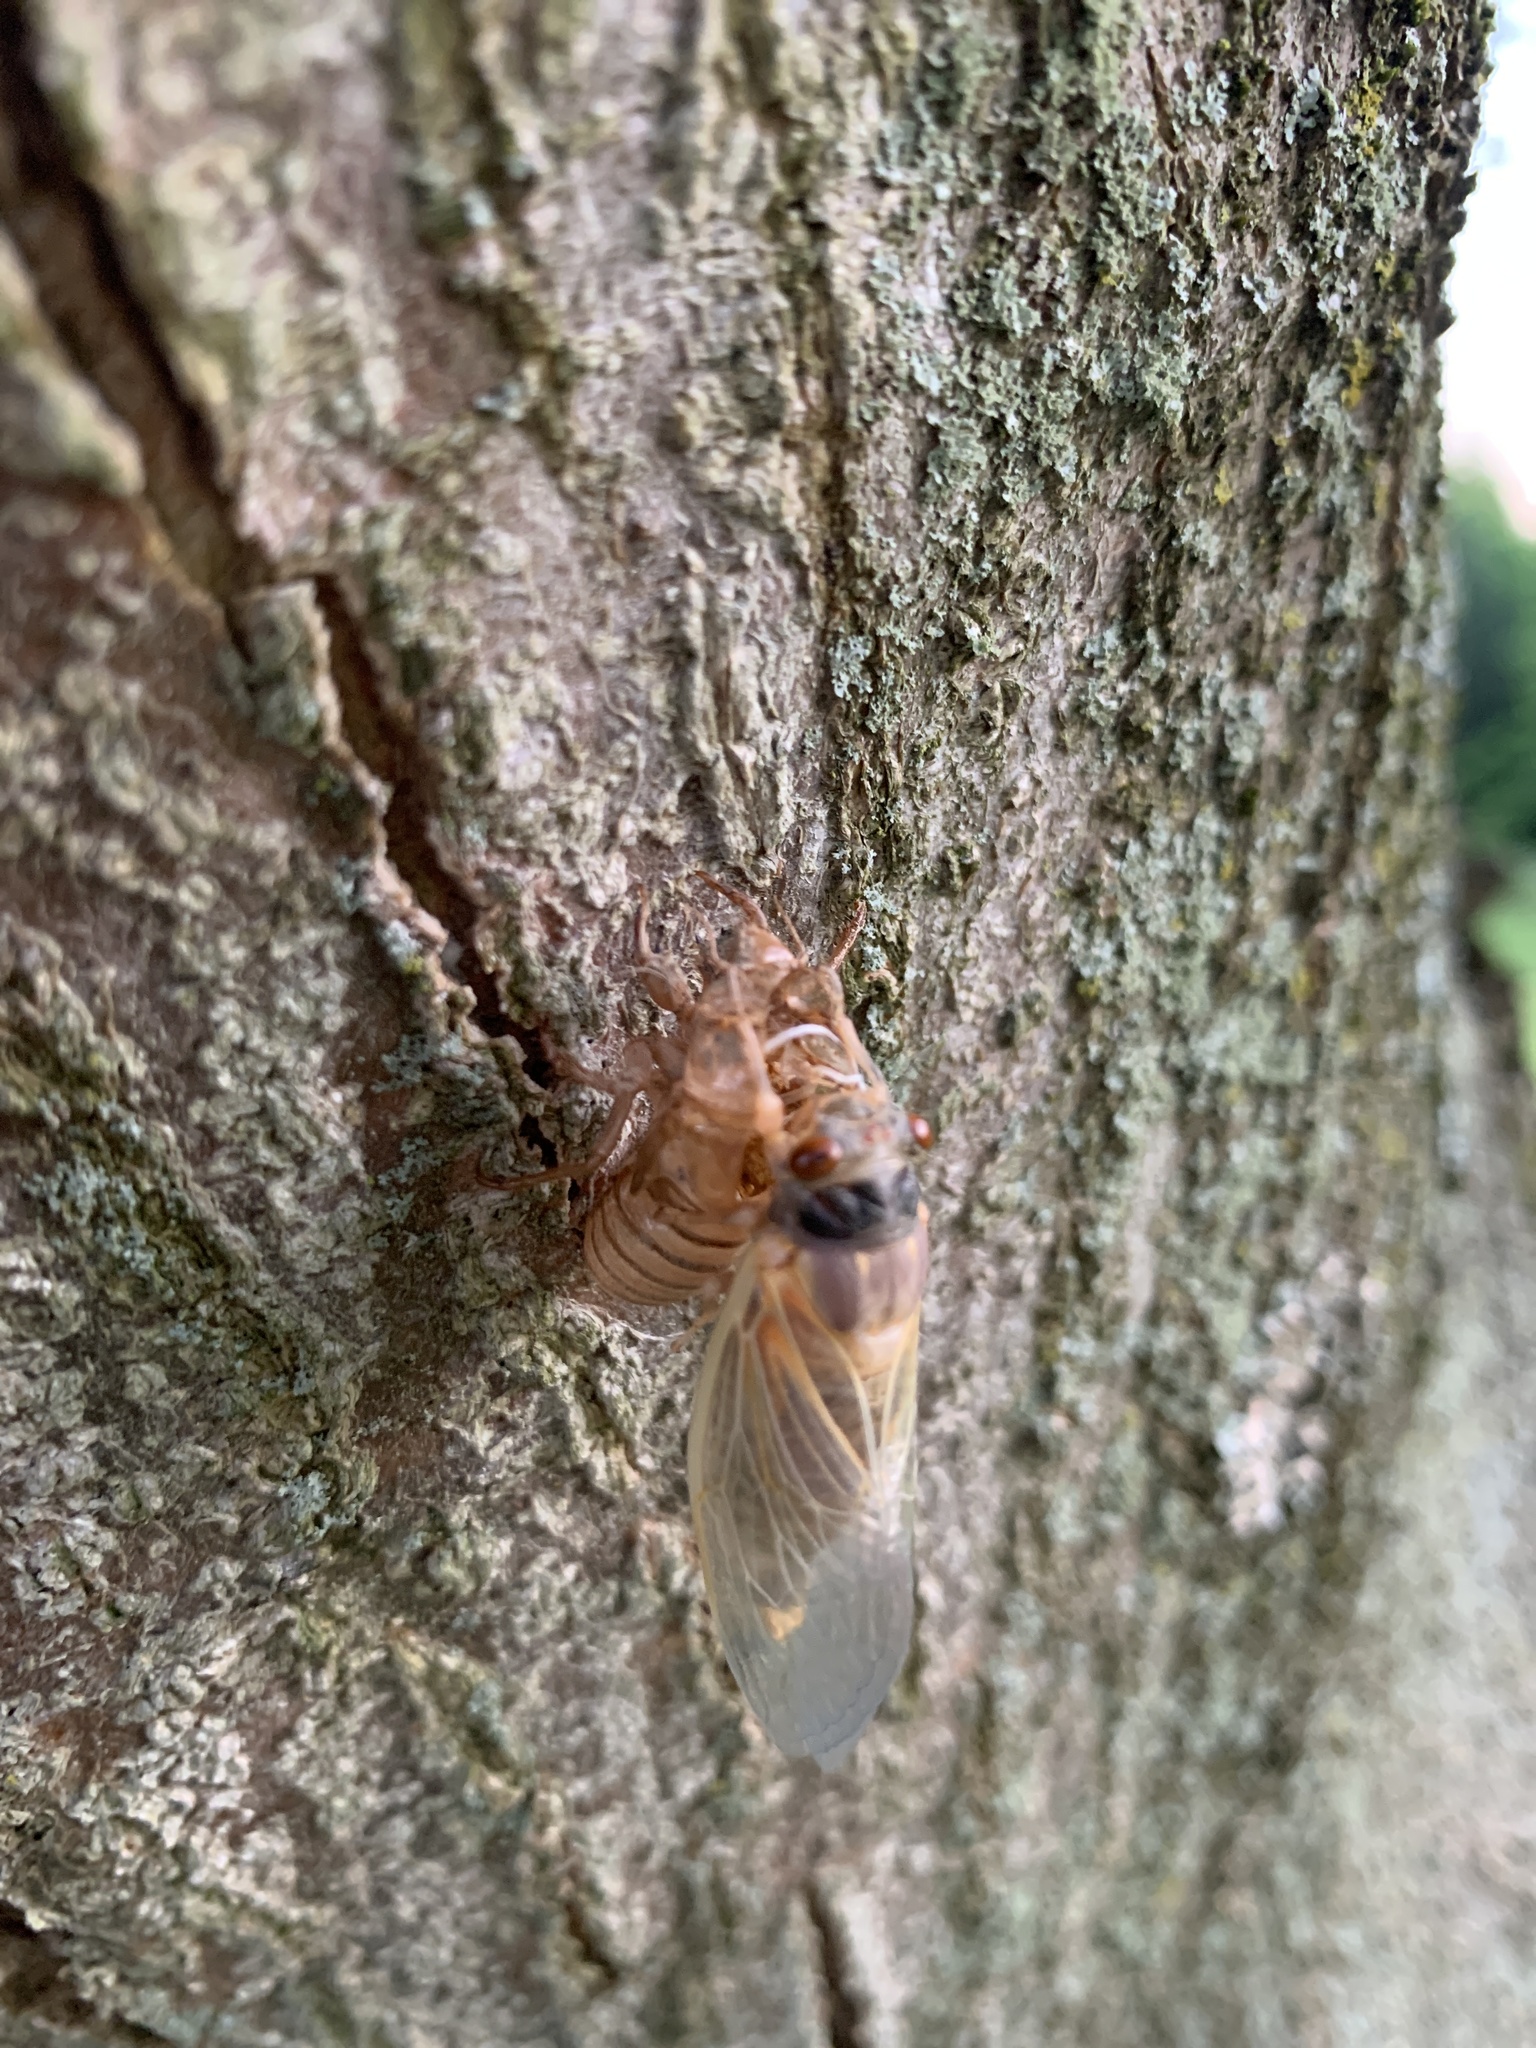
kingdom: Animalia
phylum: Arthropoda
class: Insecta
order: Hemiptera
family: Cicadidae
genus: Magicicada
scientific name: Magicicada
